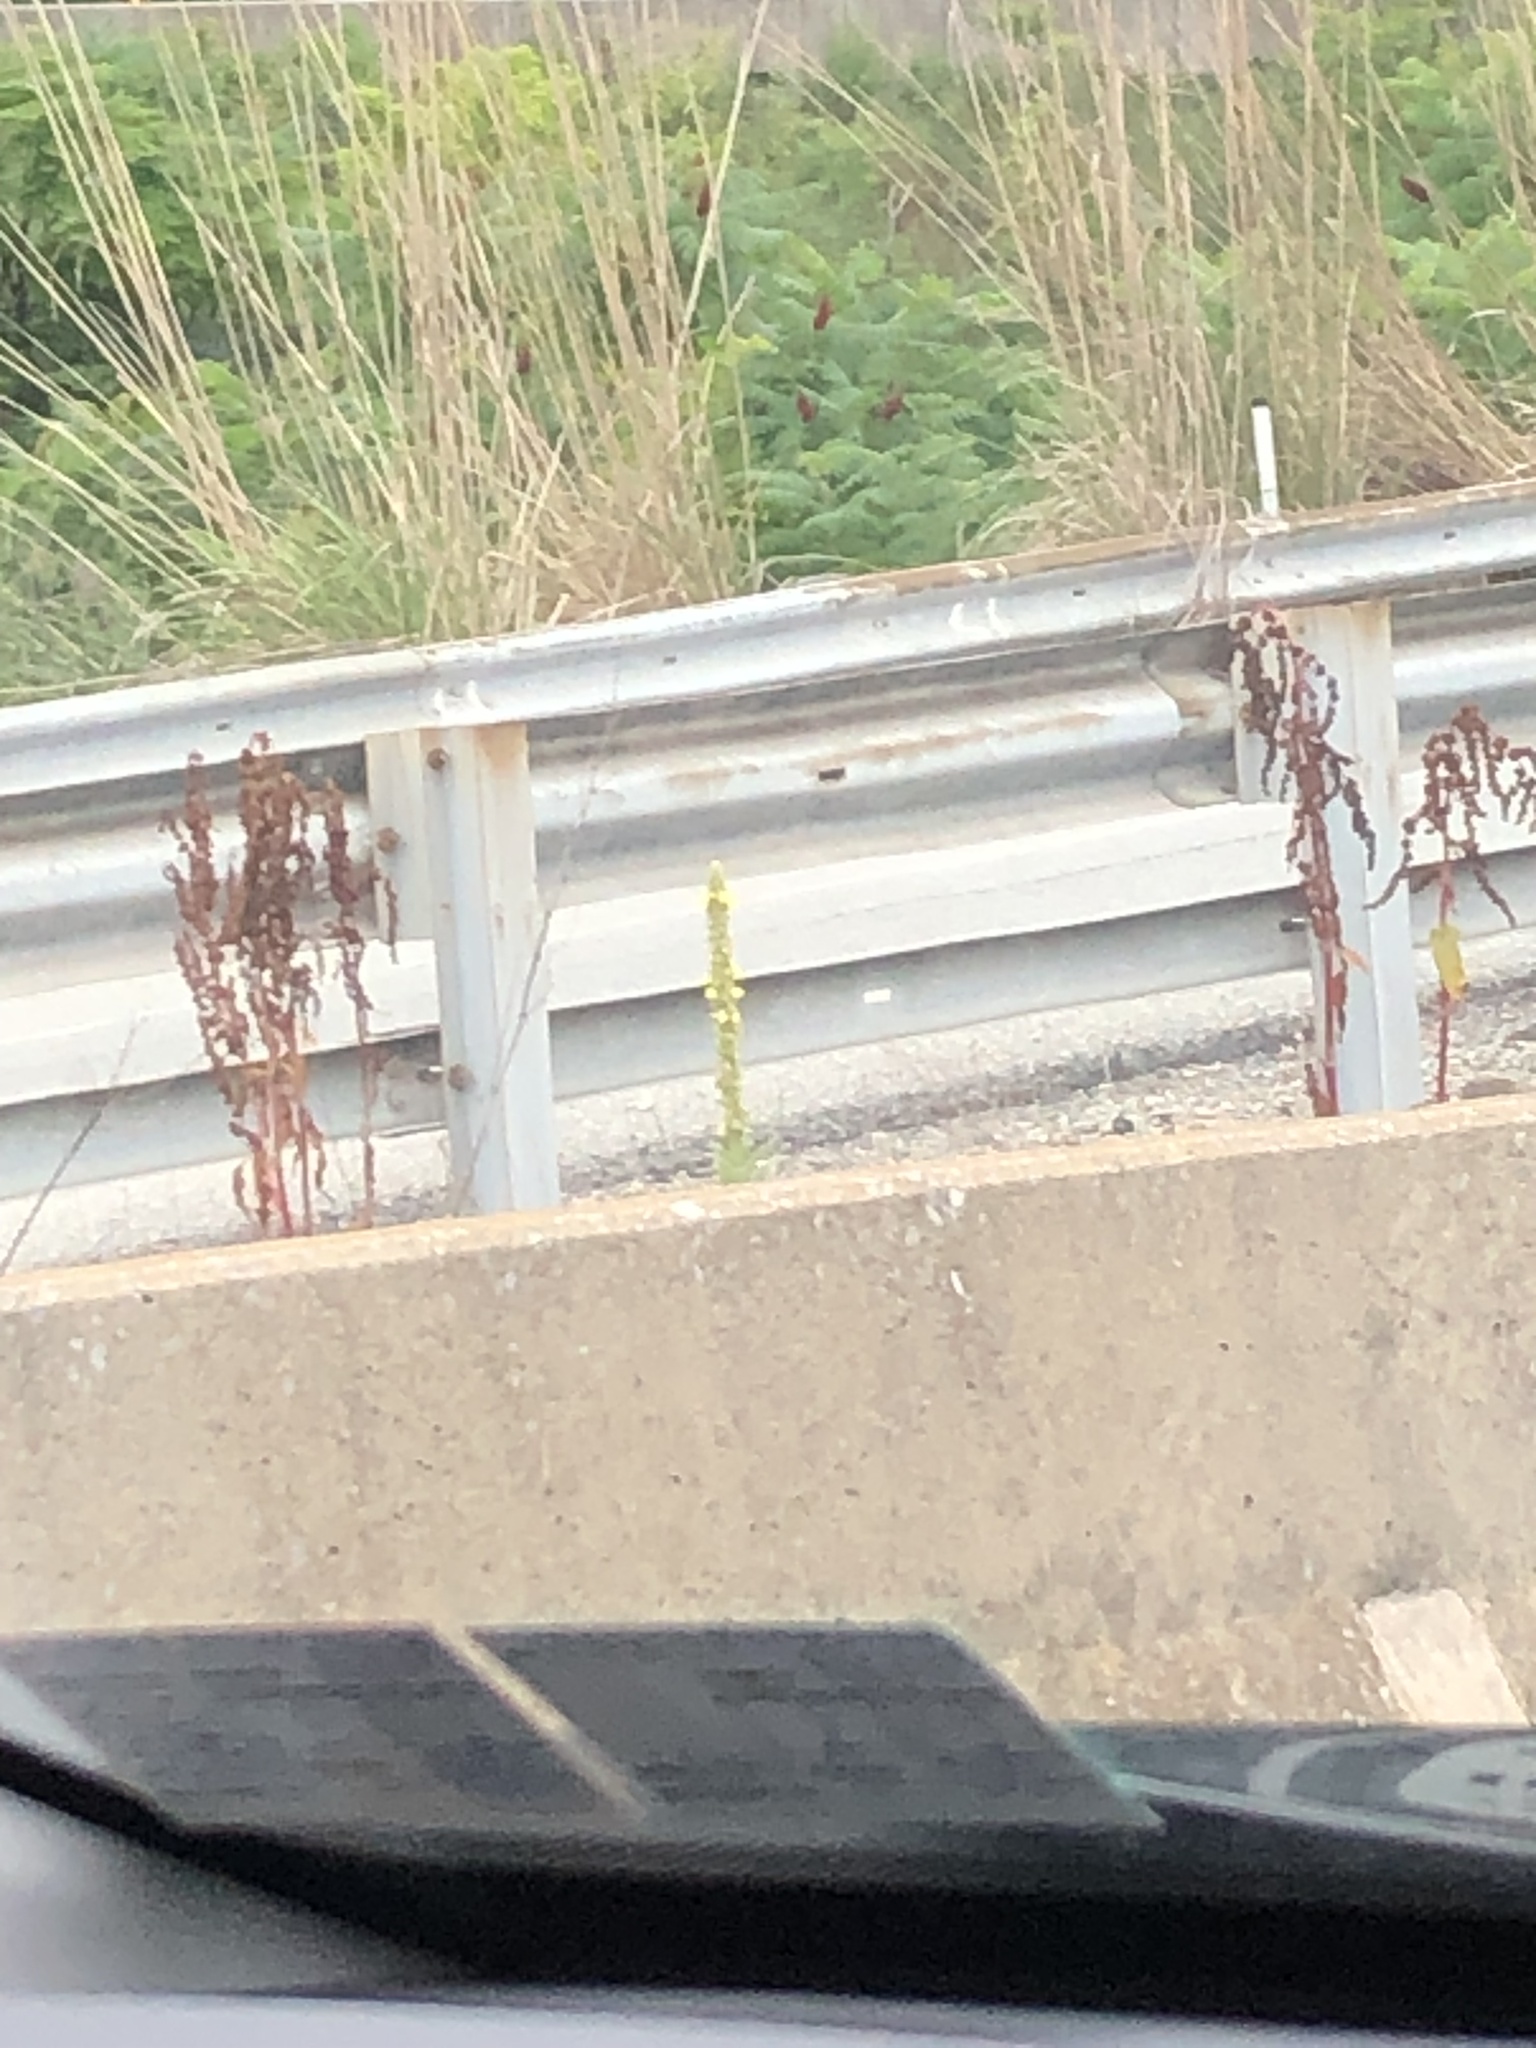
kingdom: Plantae
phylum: Tracheophyta
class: Magnoliopsida
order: Lamiales
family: Scrophulariaceae
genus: Verbascum
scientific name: Verbascum thapsus
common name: Common mullein
